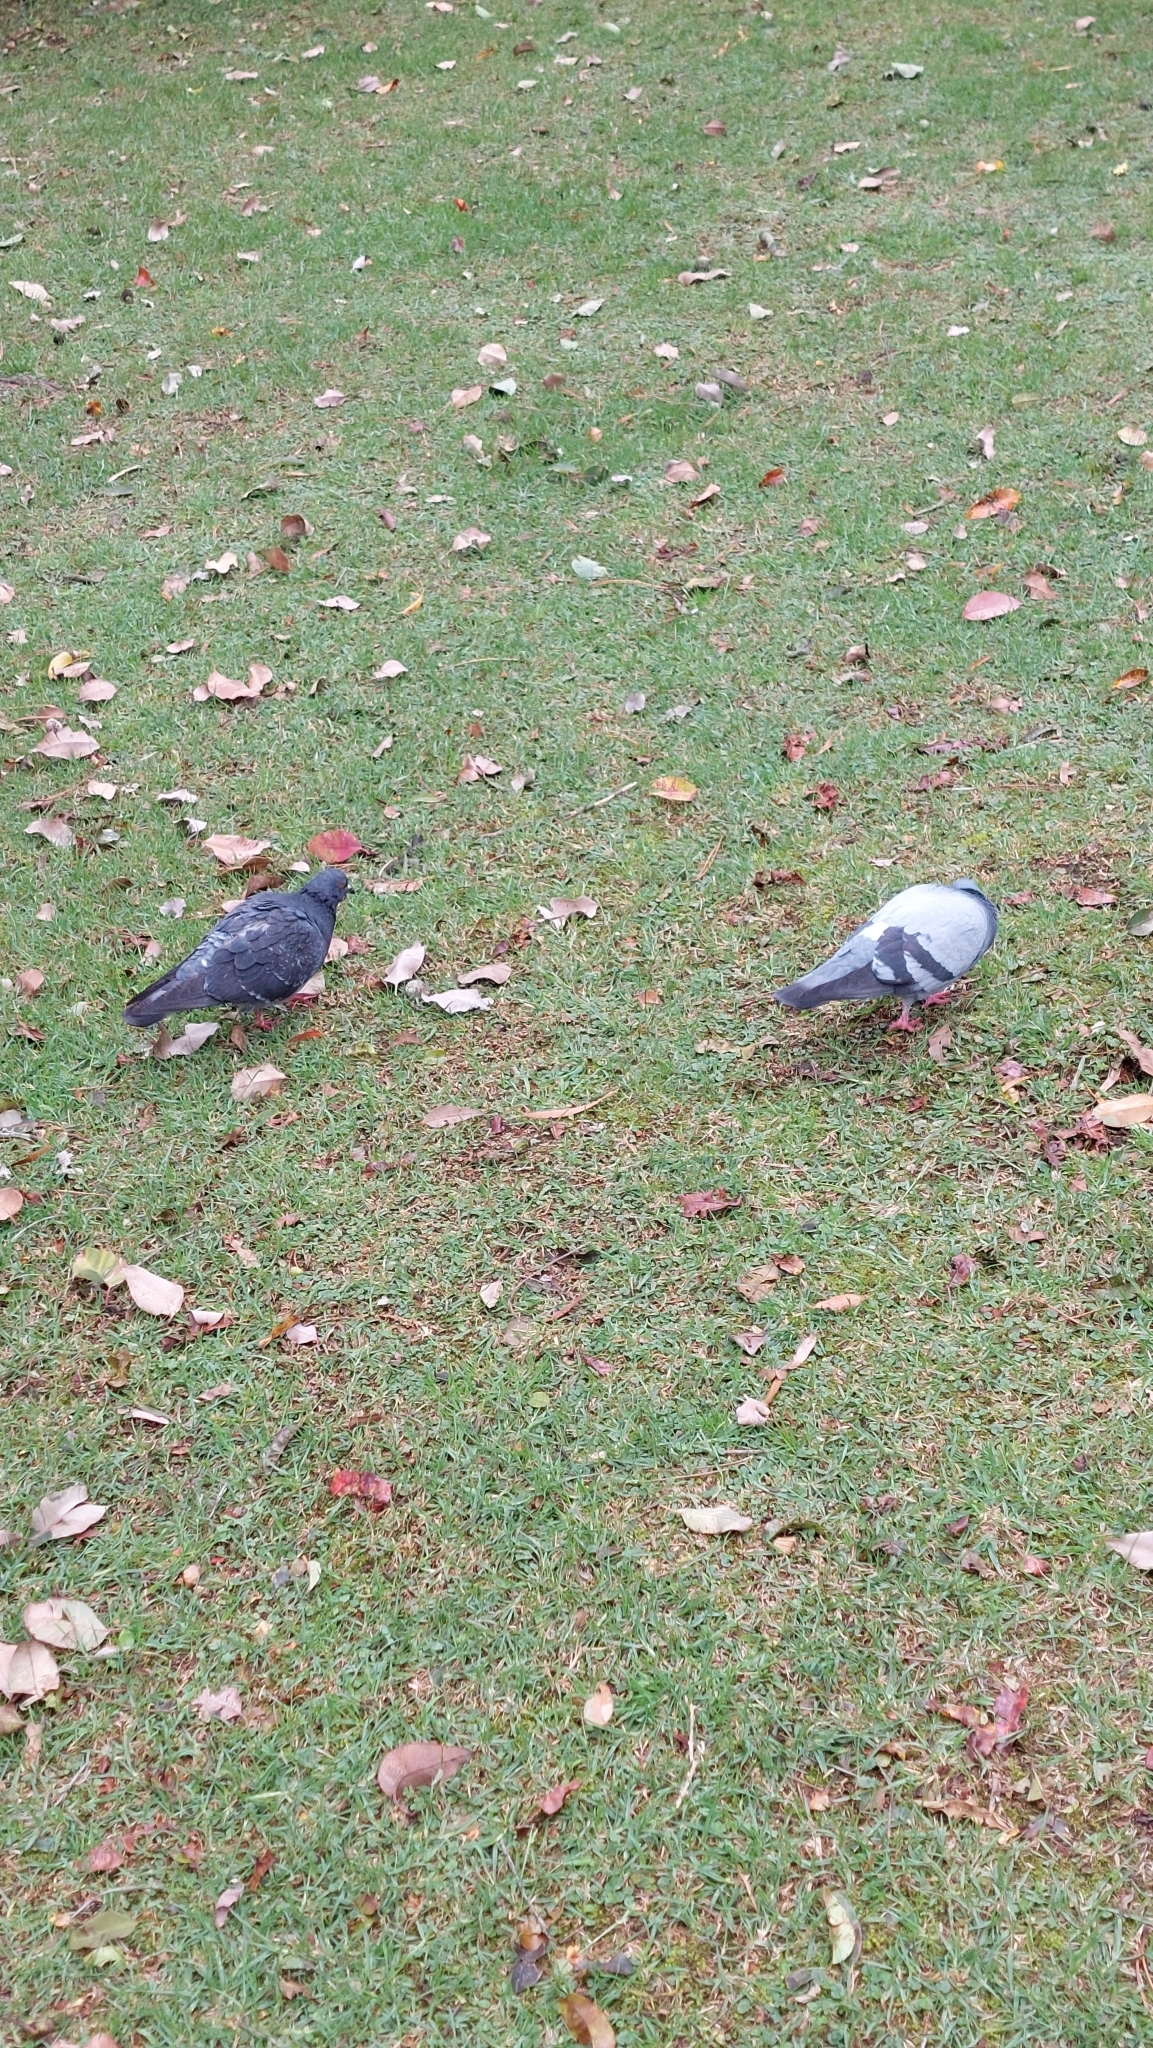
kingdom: Animalia
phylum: Chordata
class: Aves
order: Columbiformes
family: Columbidae
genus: Columba
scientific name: Columba livia
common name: Rock pigeon
